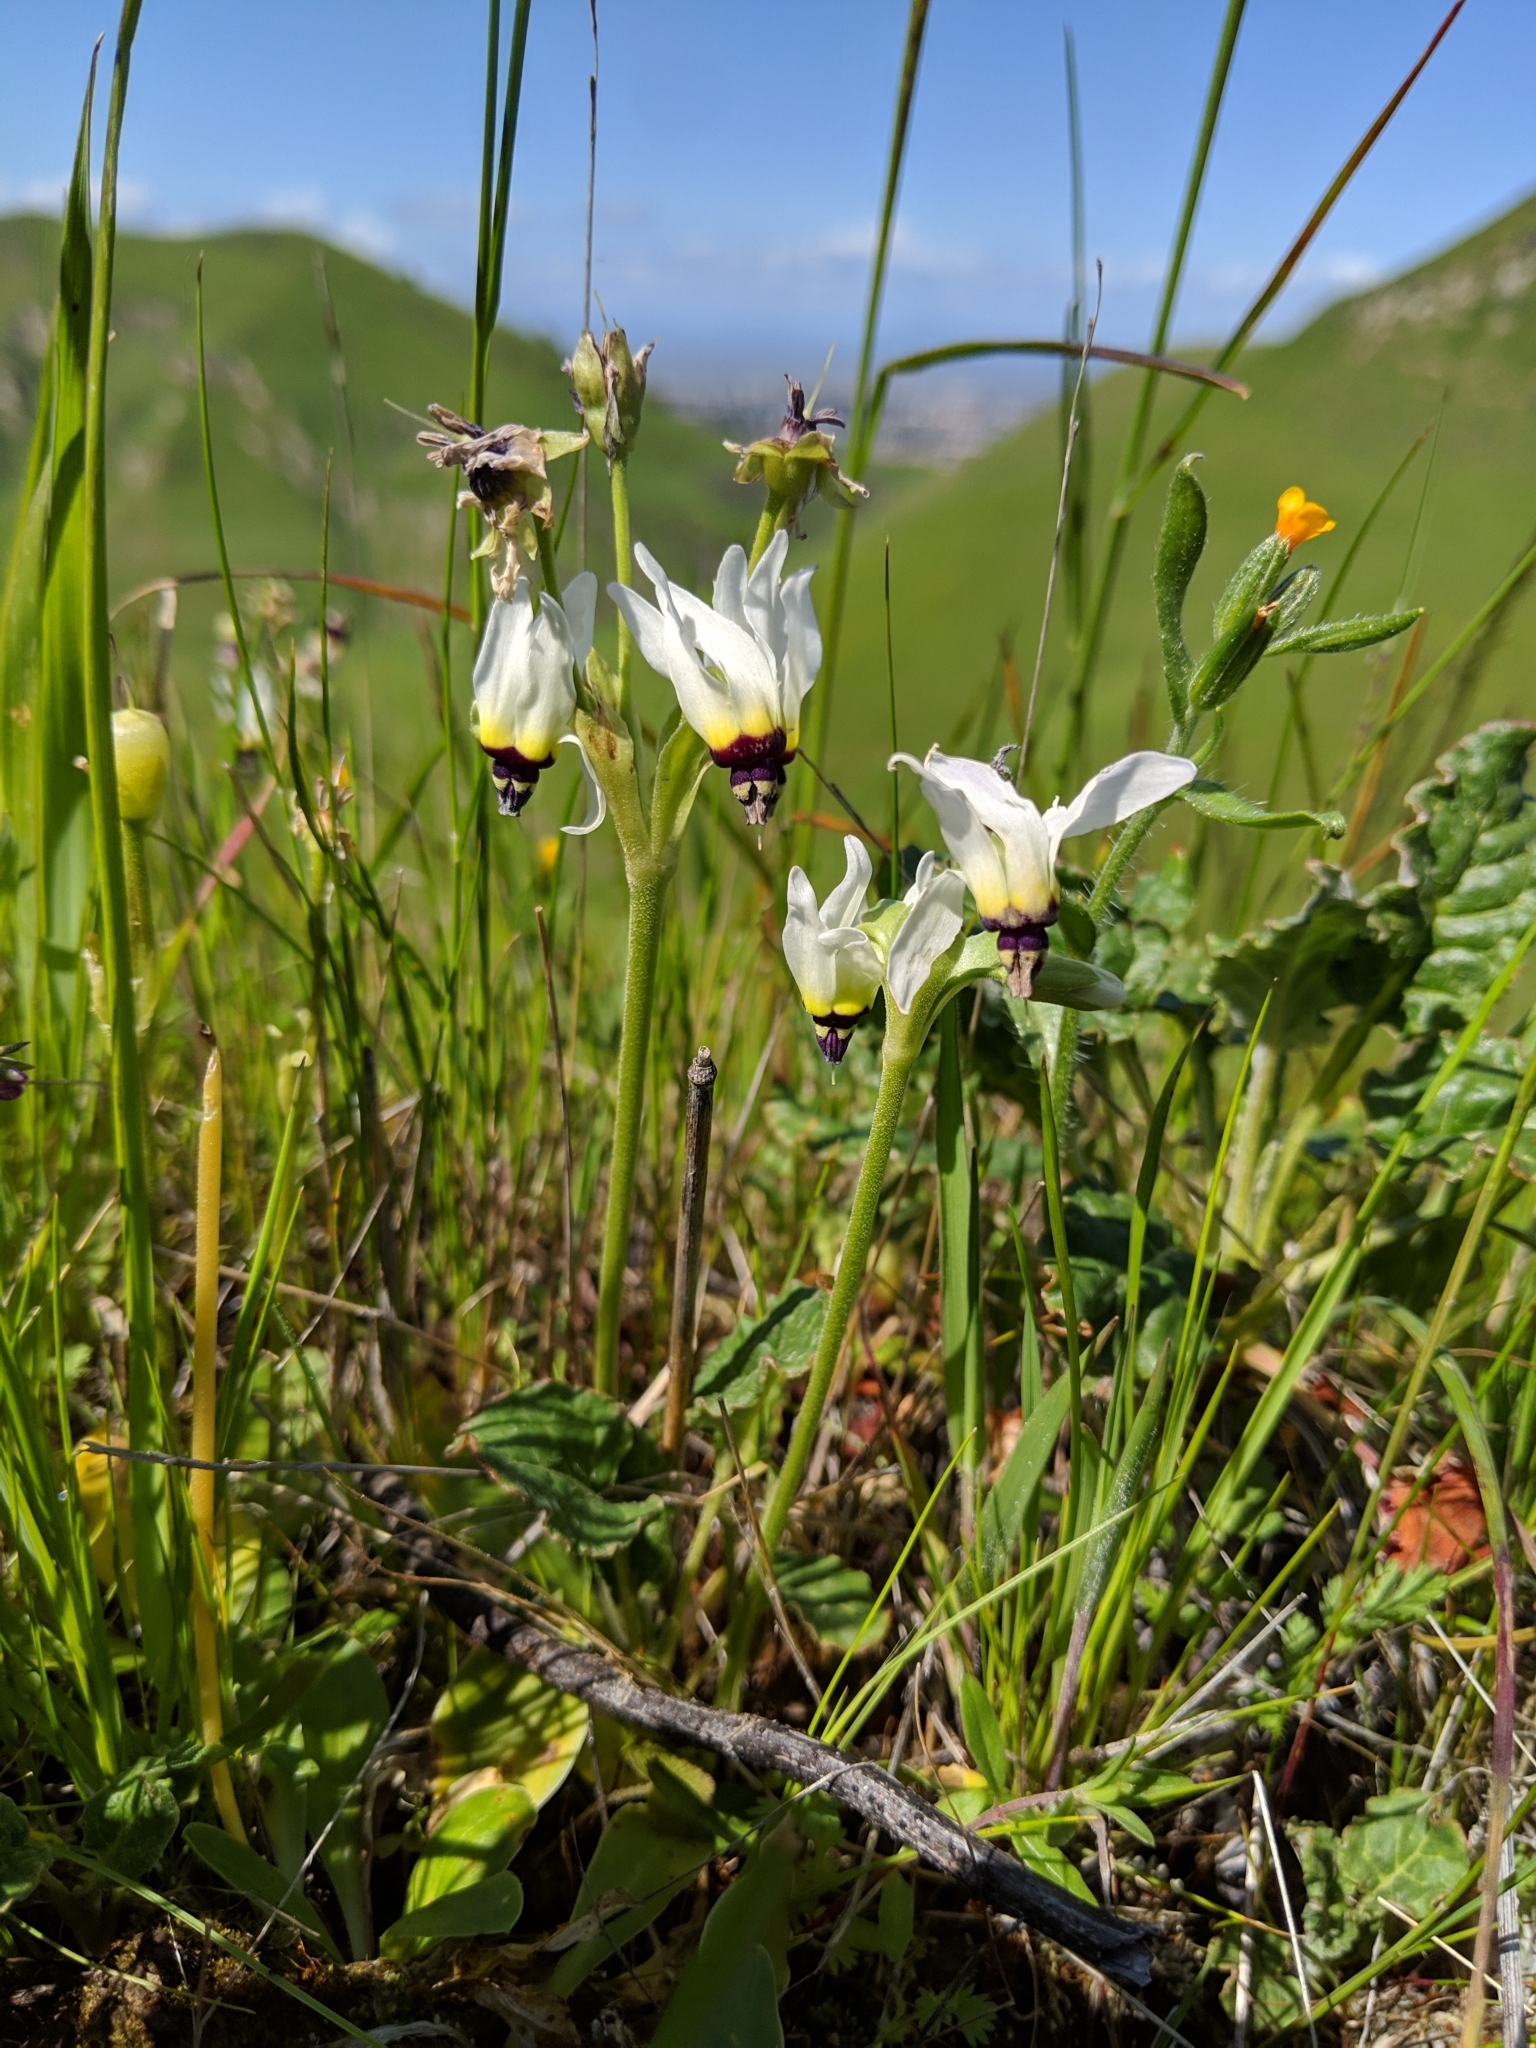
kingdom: Plantae
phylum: Tracheophyta
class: Magnoliopsida
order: Ericales
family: Primulaceae
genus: Dodecatheon
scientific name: Dodecatheon clevelandii
